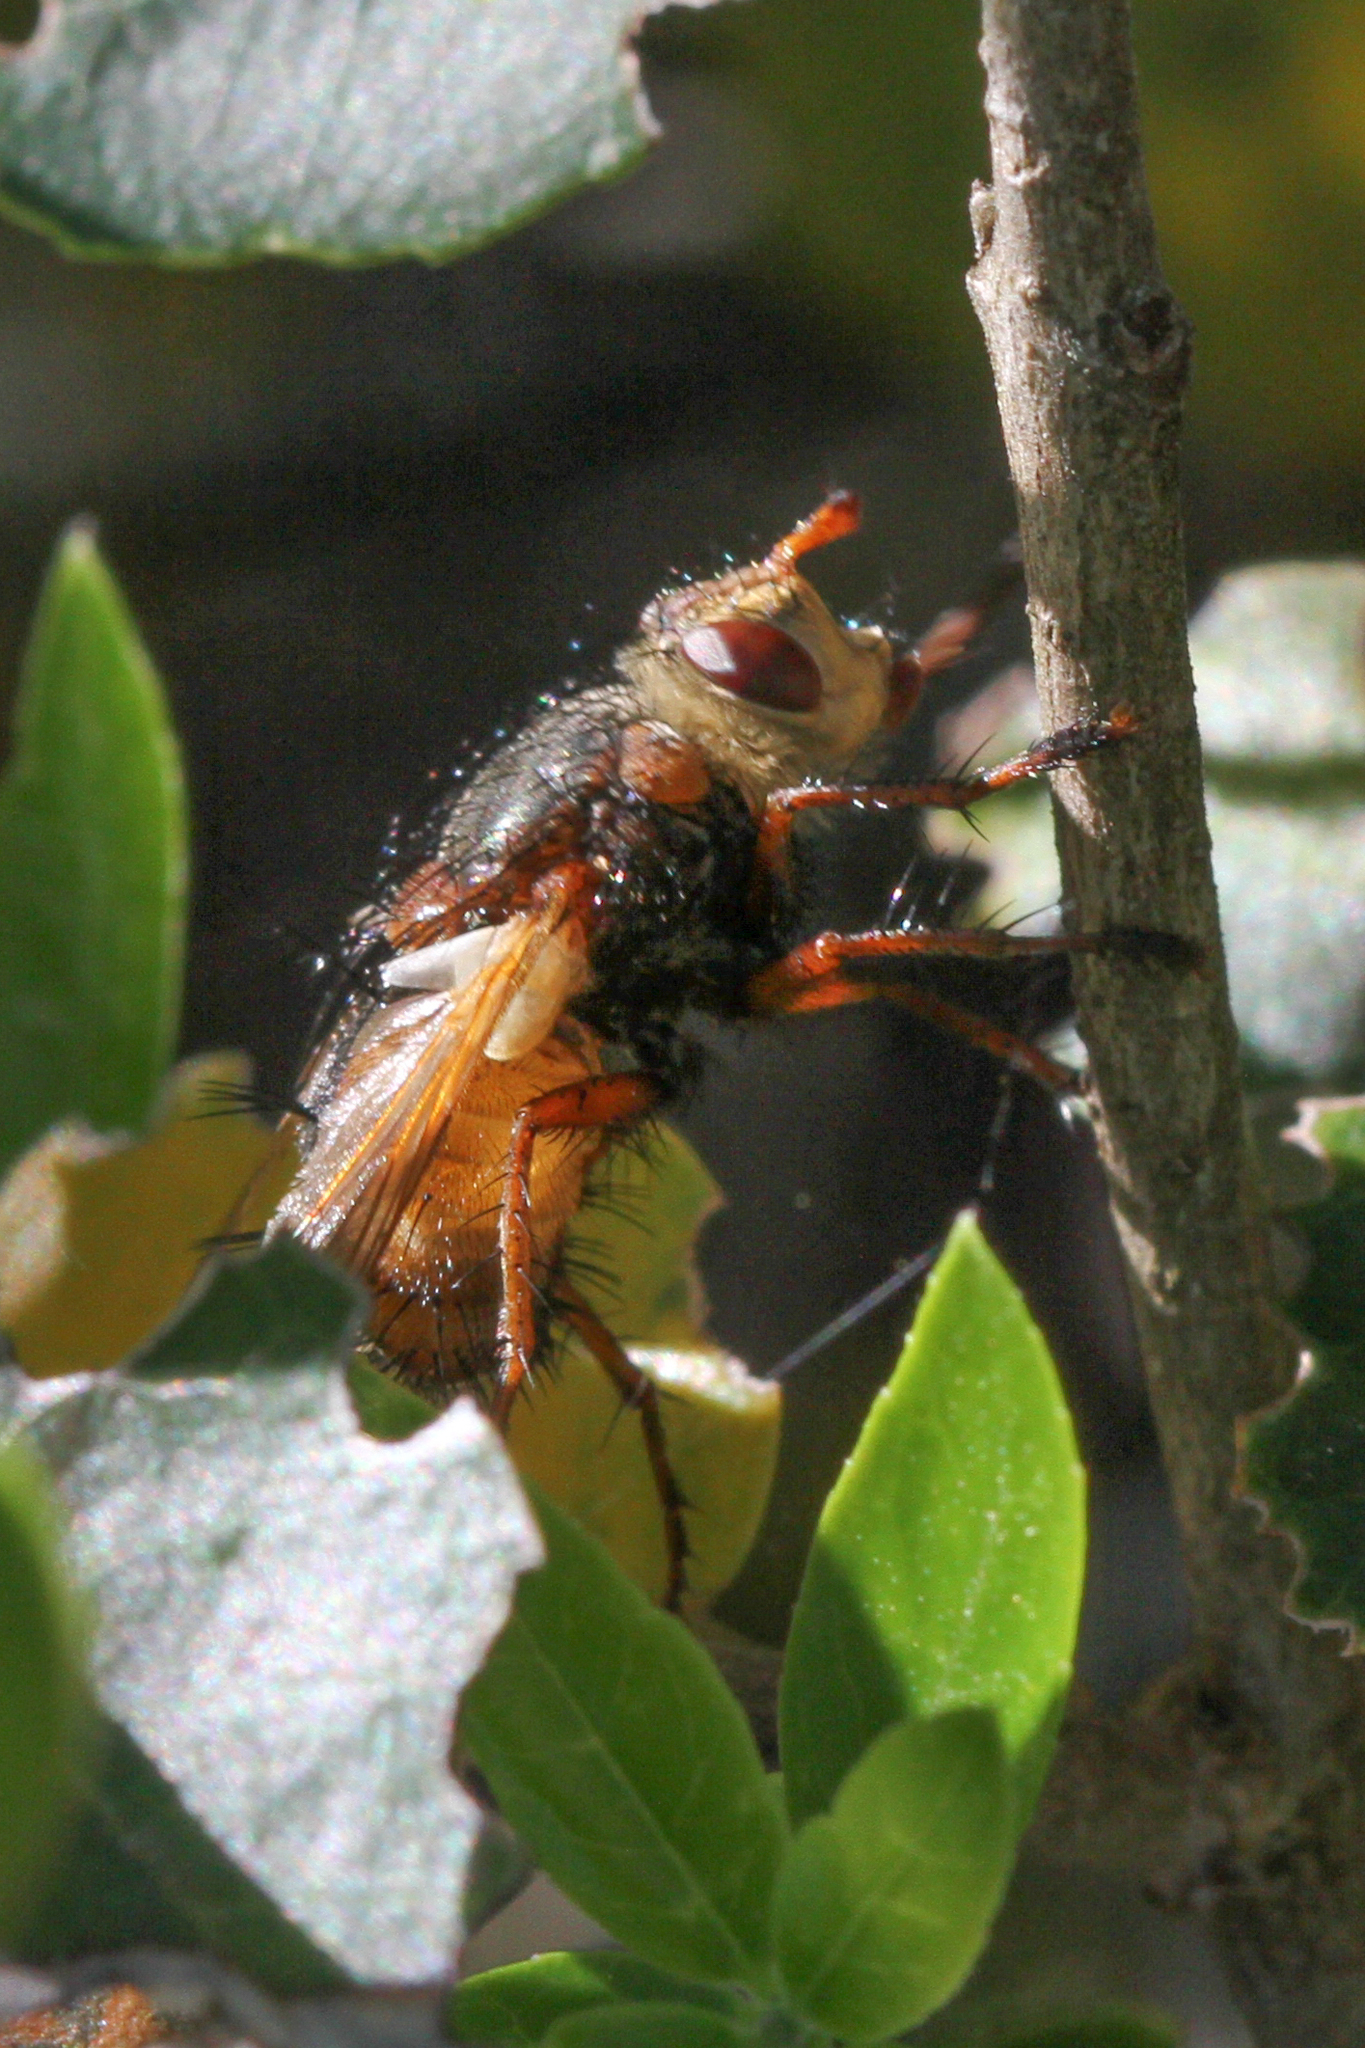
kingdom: Animalia
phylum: Arthropoda
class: Insecta
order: Diptera
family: Tachinidae
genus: Tachina
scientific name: Tachina fera
